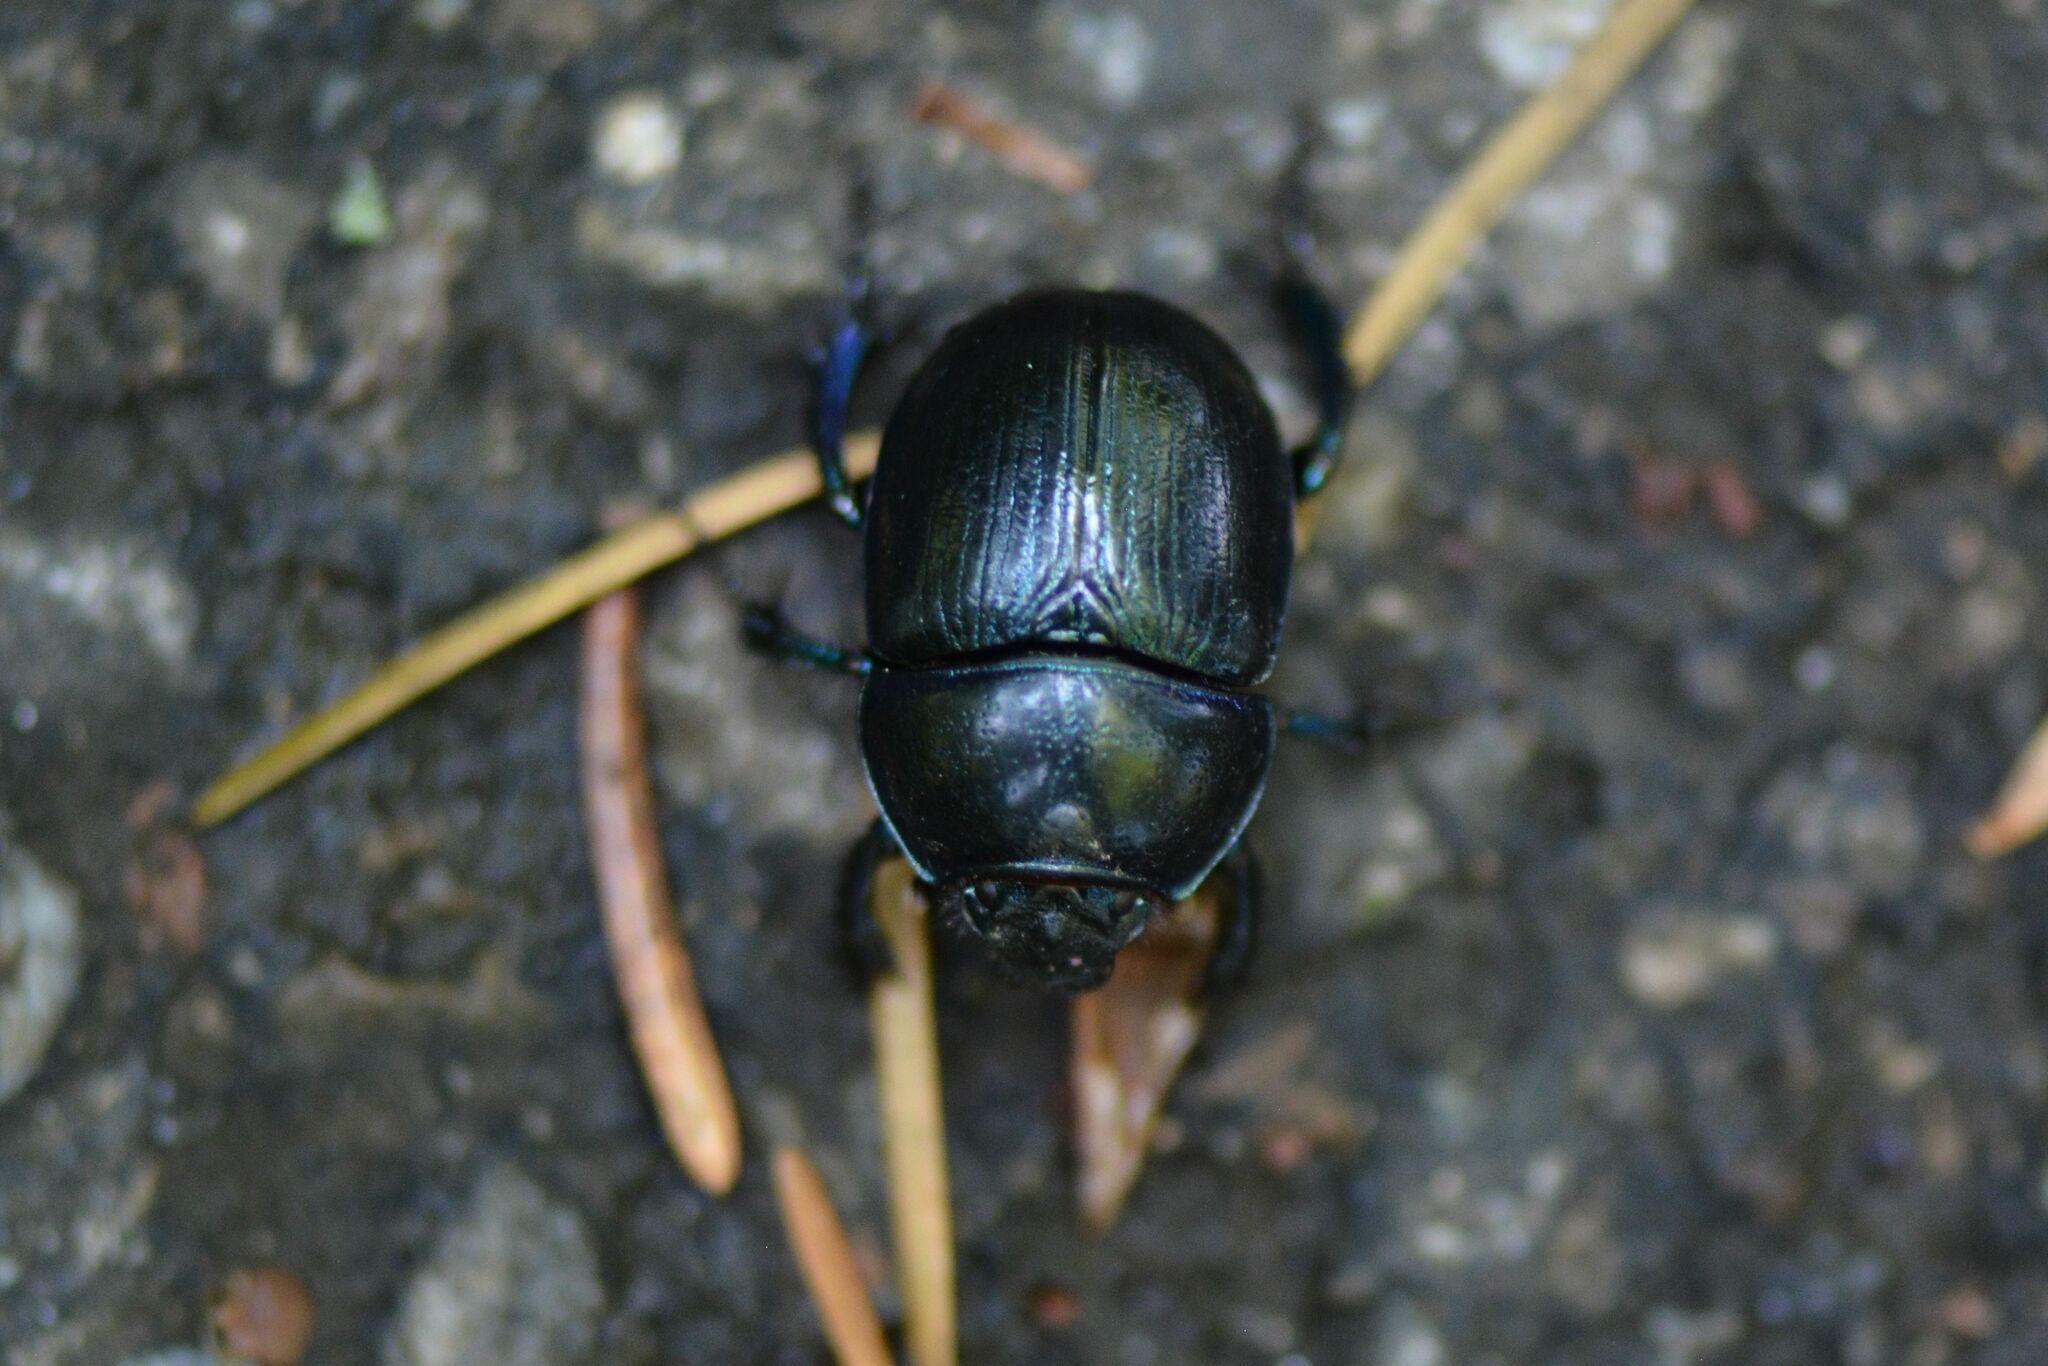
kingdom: Animalia
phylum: Arthropoda
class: Insecta
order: Coleoptera
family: Geotrupidae
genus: Anoplotrupes
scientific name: Anoplotrupes stercorosus
